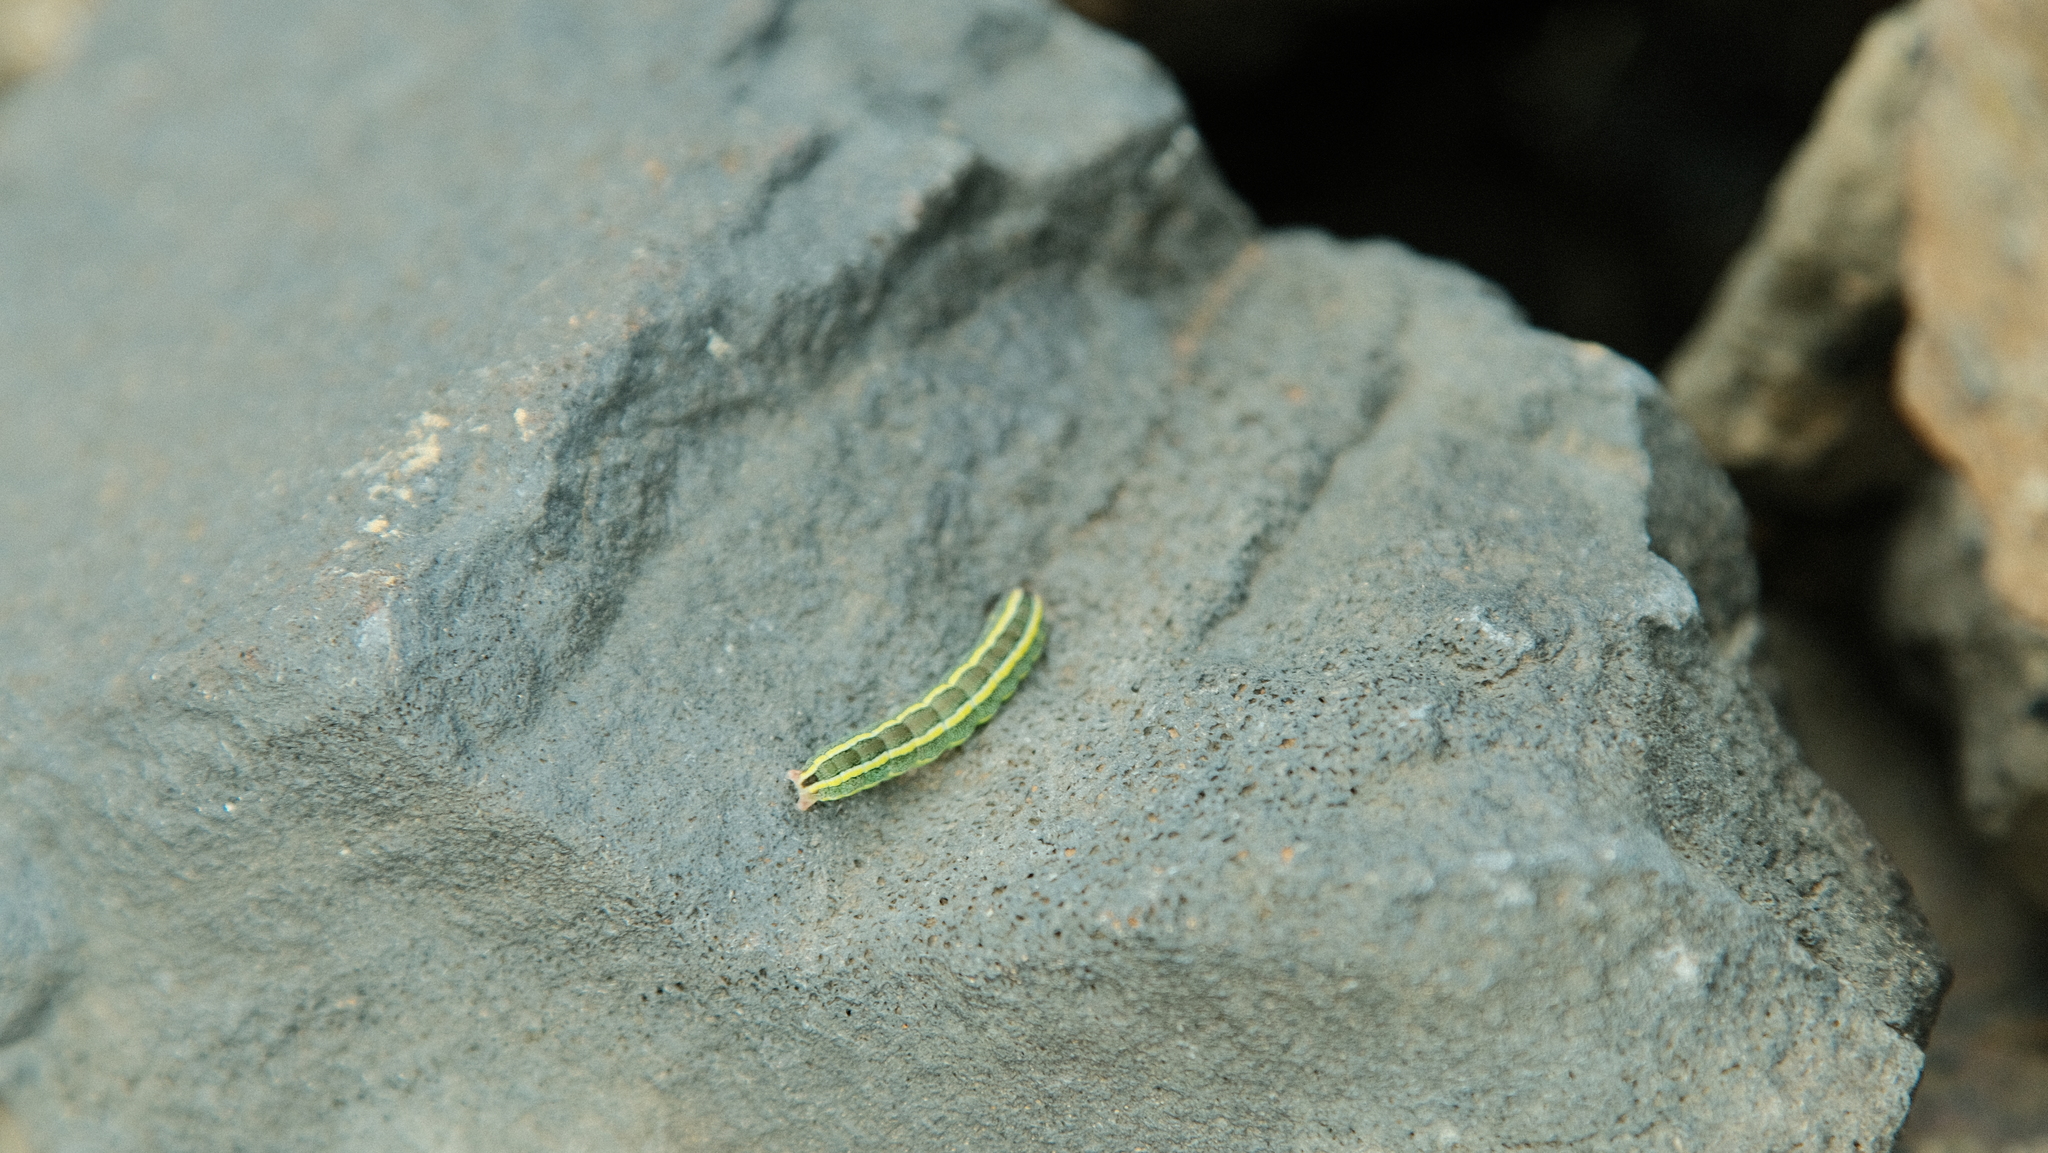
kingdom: Animalia
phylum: Arthropoda
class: Insecta
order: Lepidoptera
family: Noctuidae
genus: Ceramica
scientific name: Ceramica pisi
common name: Broom moth
